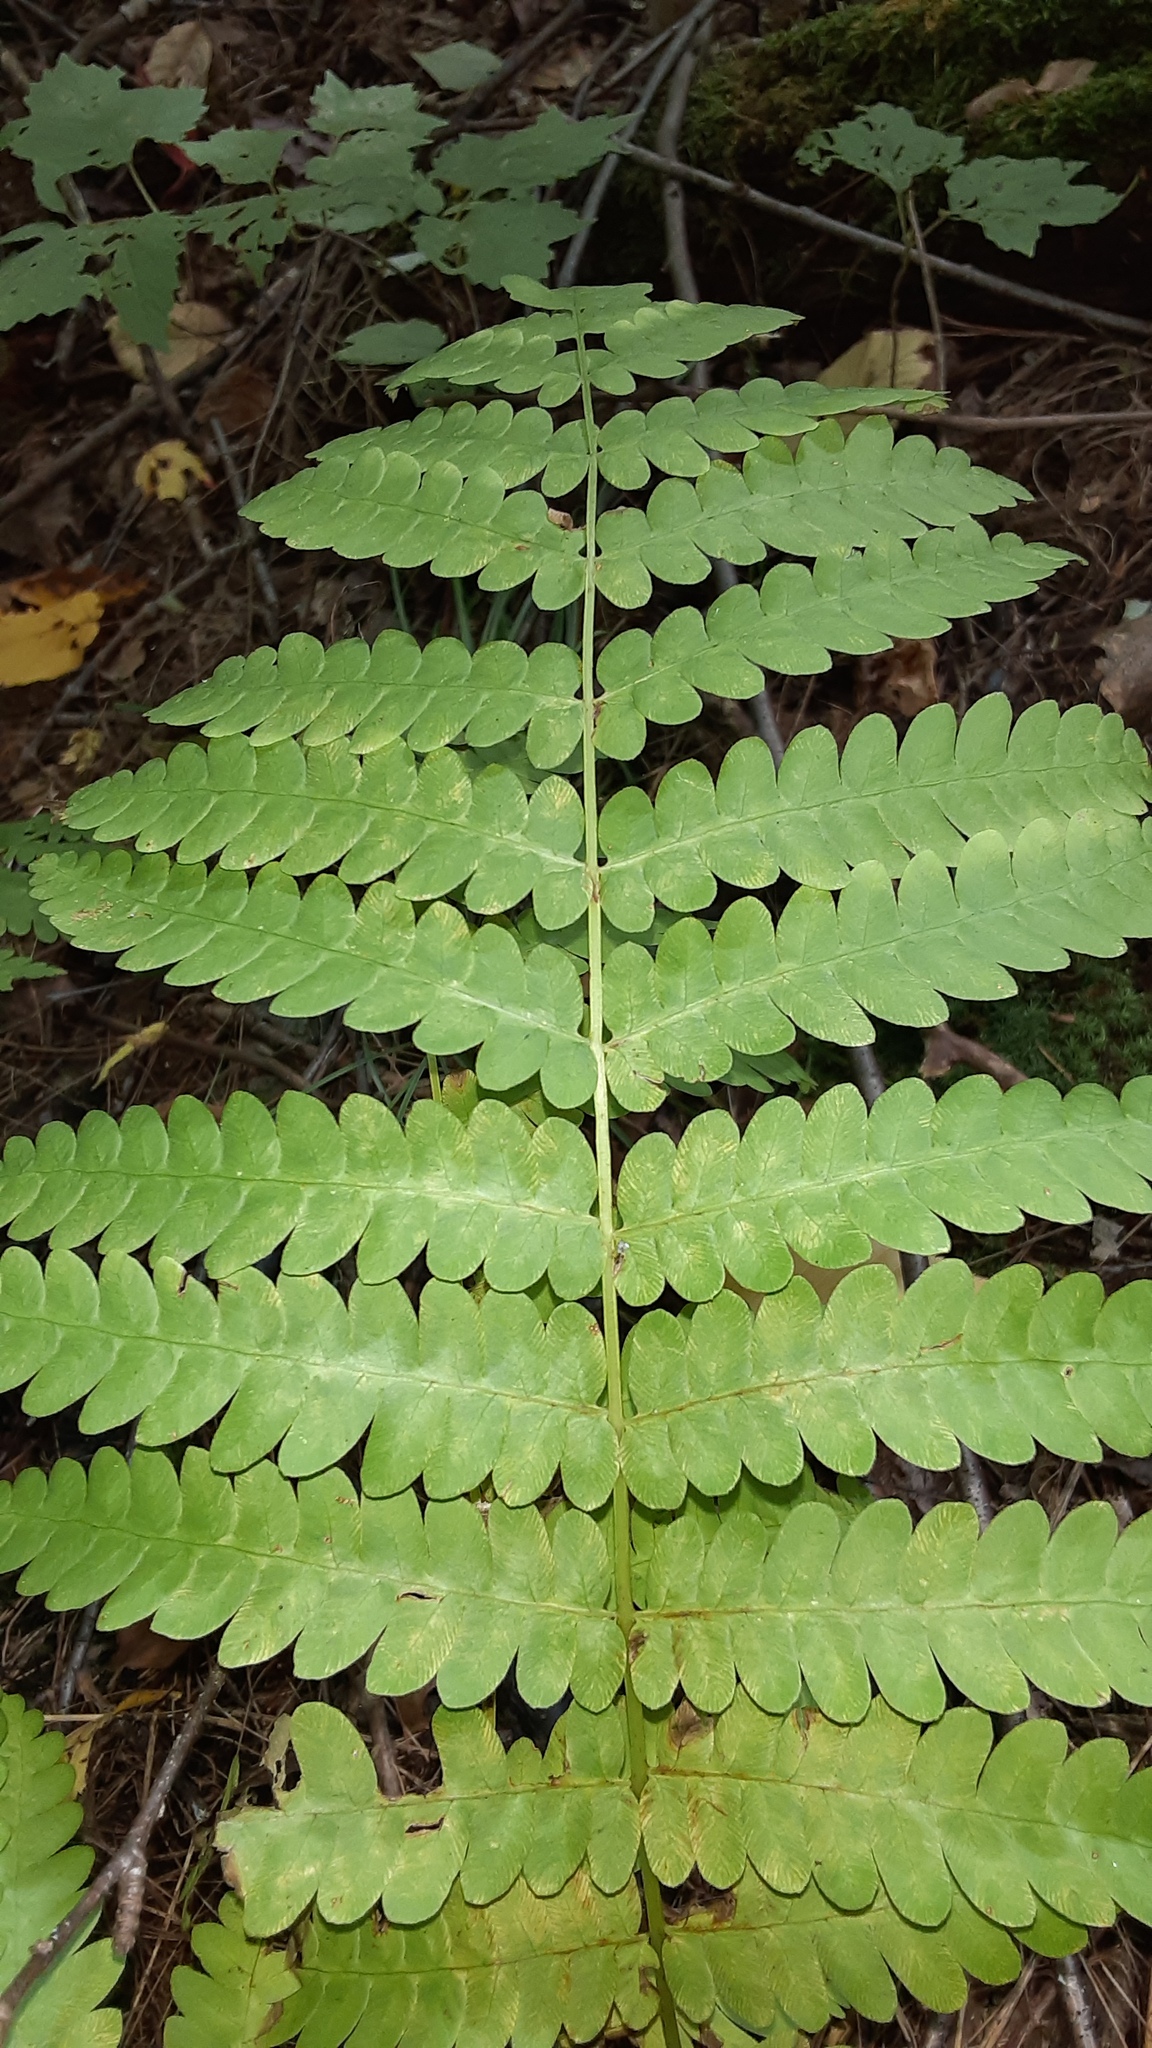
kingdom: Plantae
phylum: Tracheophyta
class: Polypodiopsida
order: Osmundales
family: Osmundaceae
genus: Claytosmunda
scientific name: Claytosmunda claytoniana
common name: Clayton's fern
